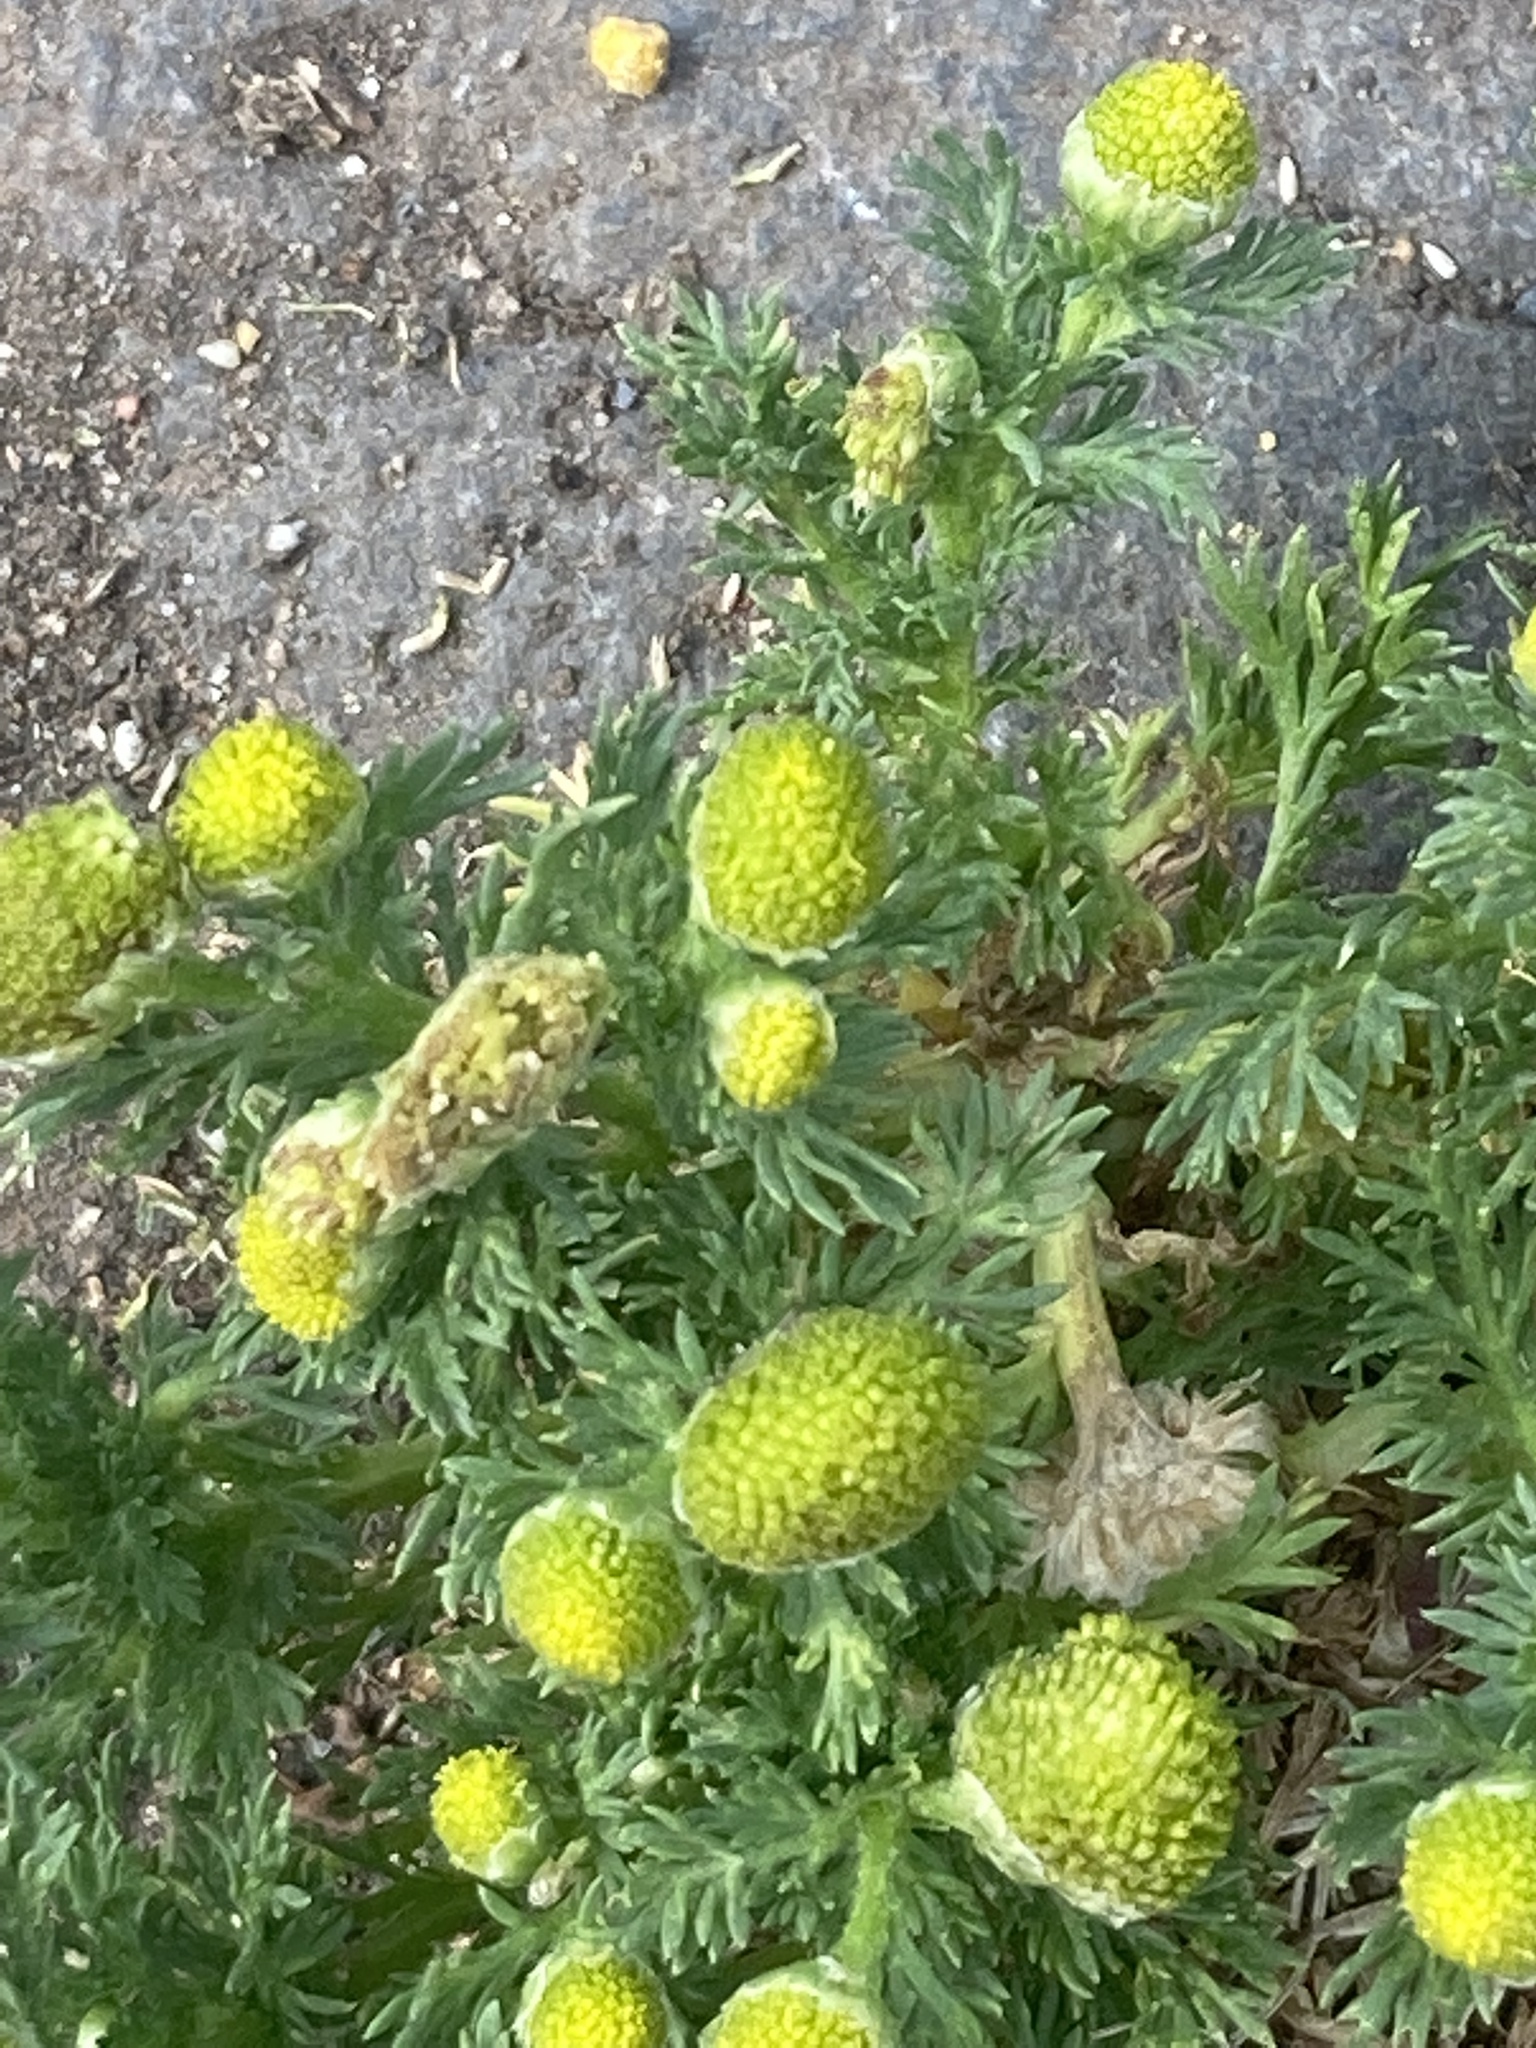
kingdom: Plantae
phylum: Tracheophyta
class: Magnoliopsida
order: Asterales
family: Asteraceae
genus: Matricaria
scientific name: Matricaria discoidea
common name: Disc mayweed
